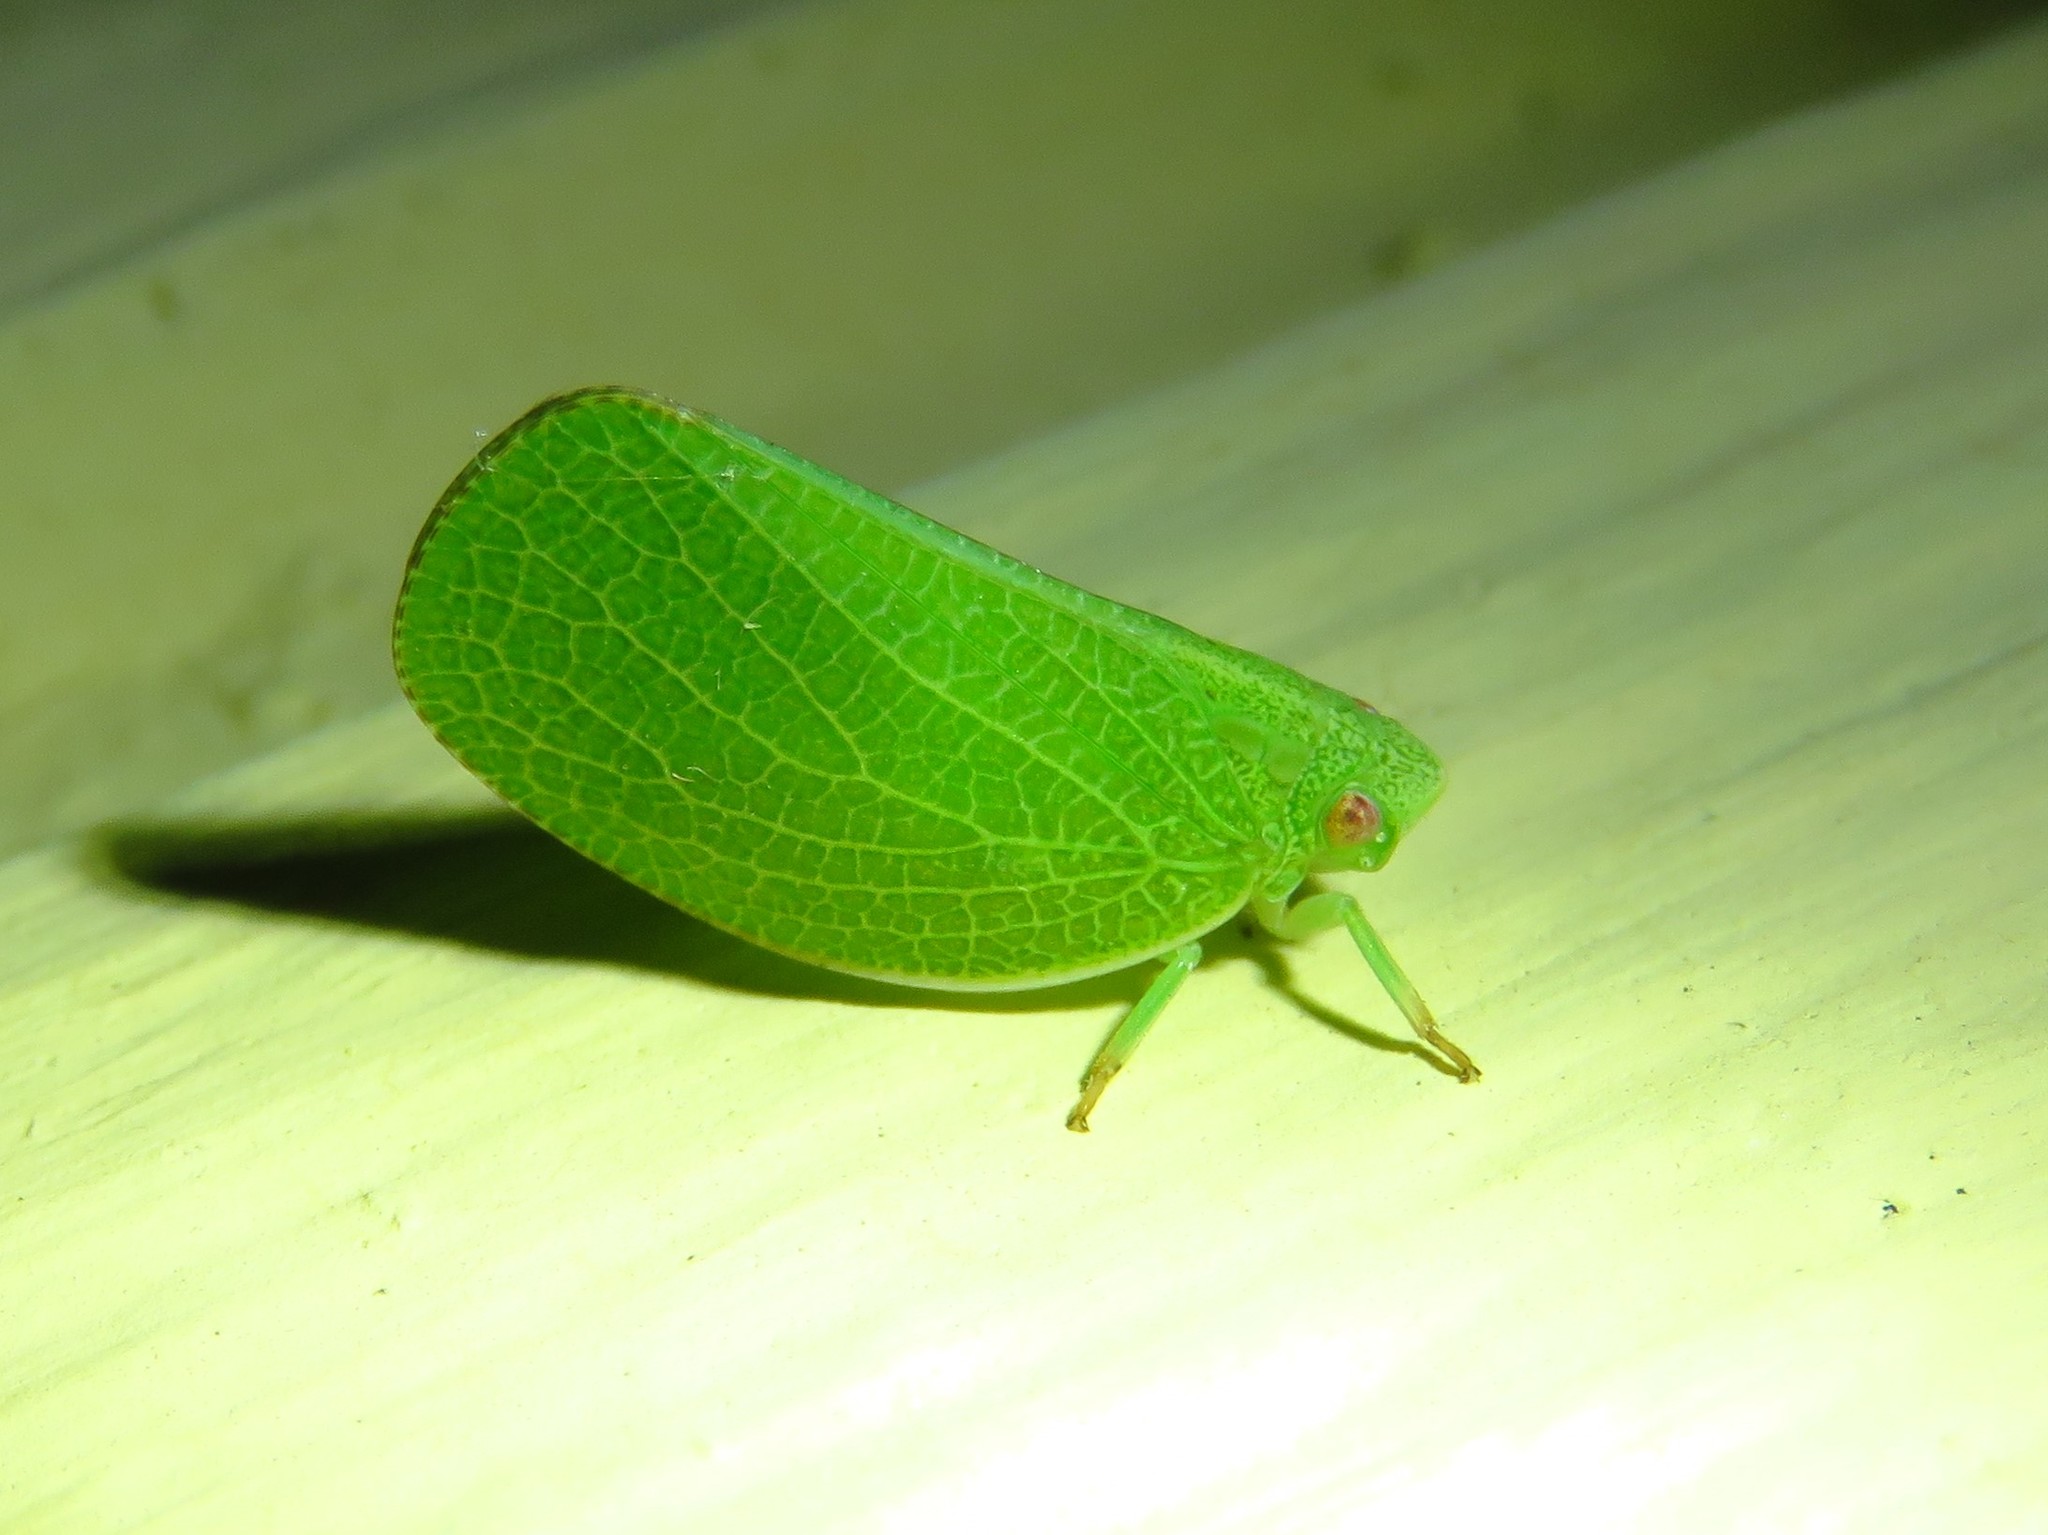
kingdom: Animalia
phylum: Arthropoda
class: Insecta
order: Hemiptera
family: Acanaloniidae
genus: Acanalonia
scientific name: Acanalonia conica
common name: Green cone-headed planthopper
